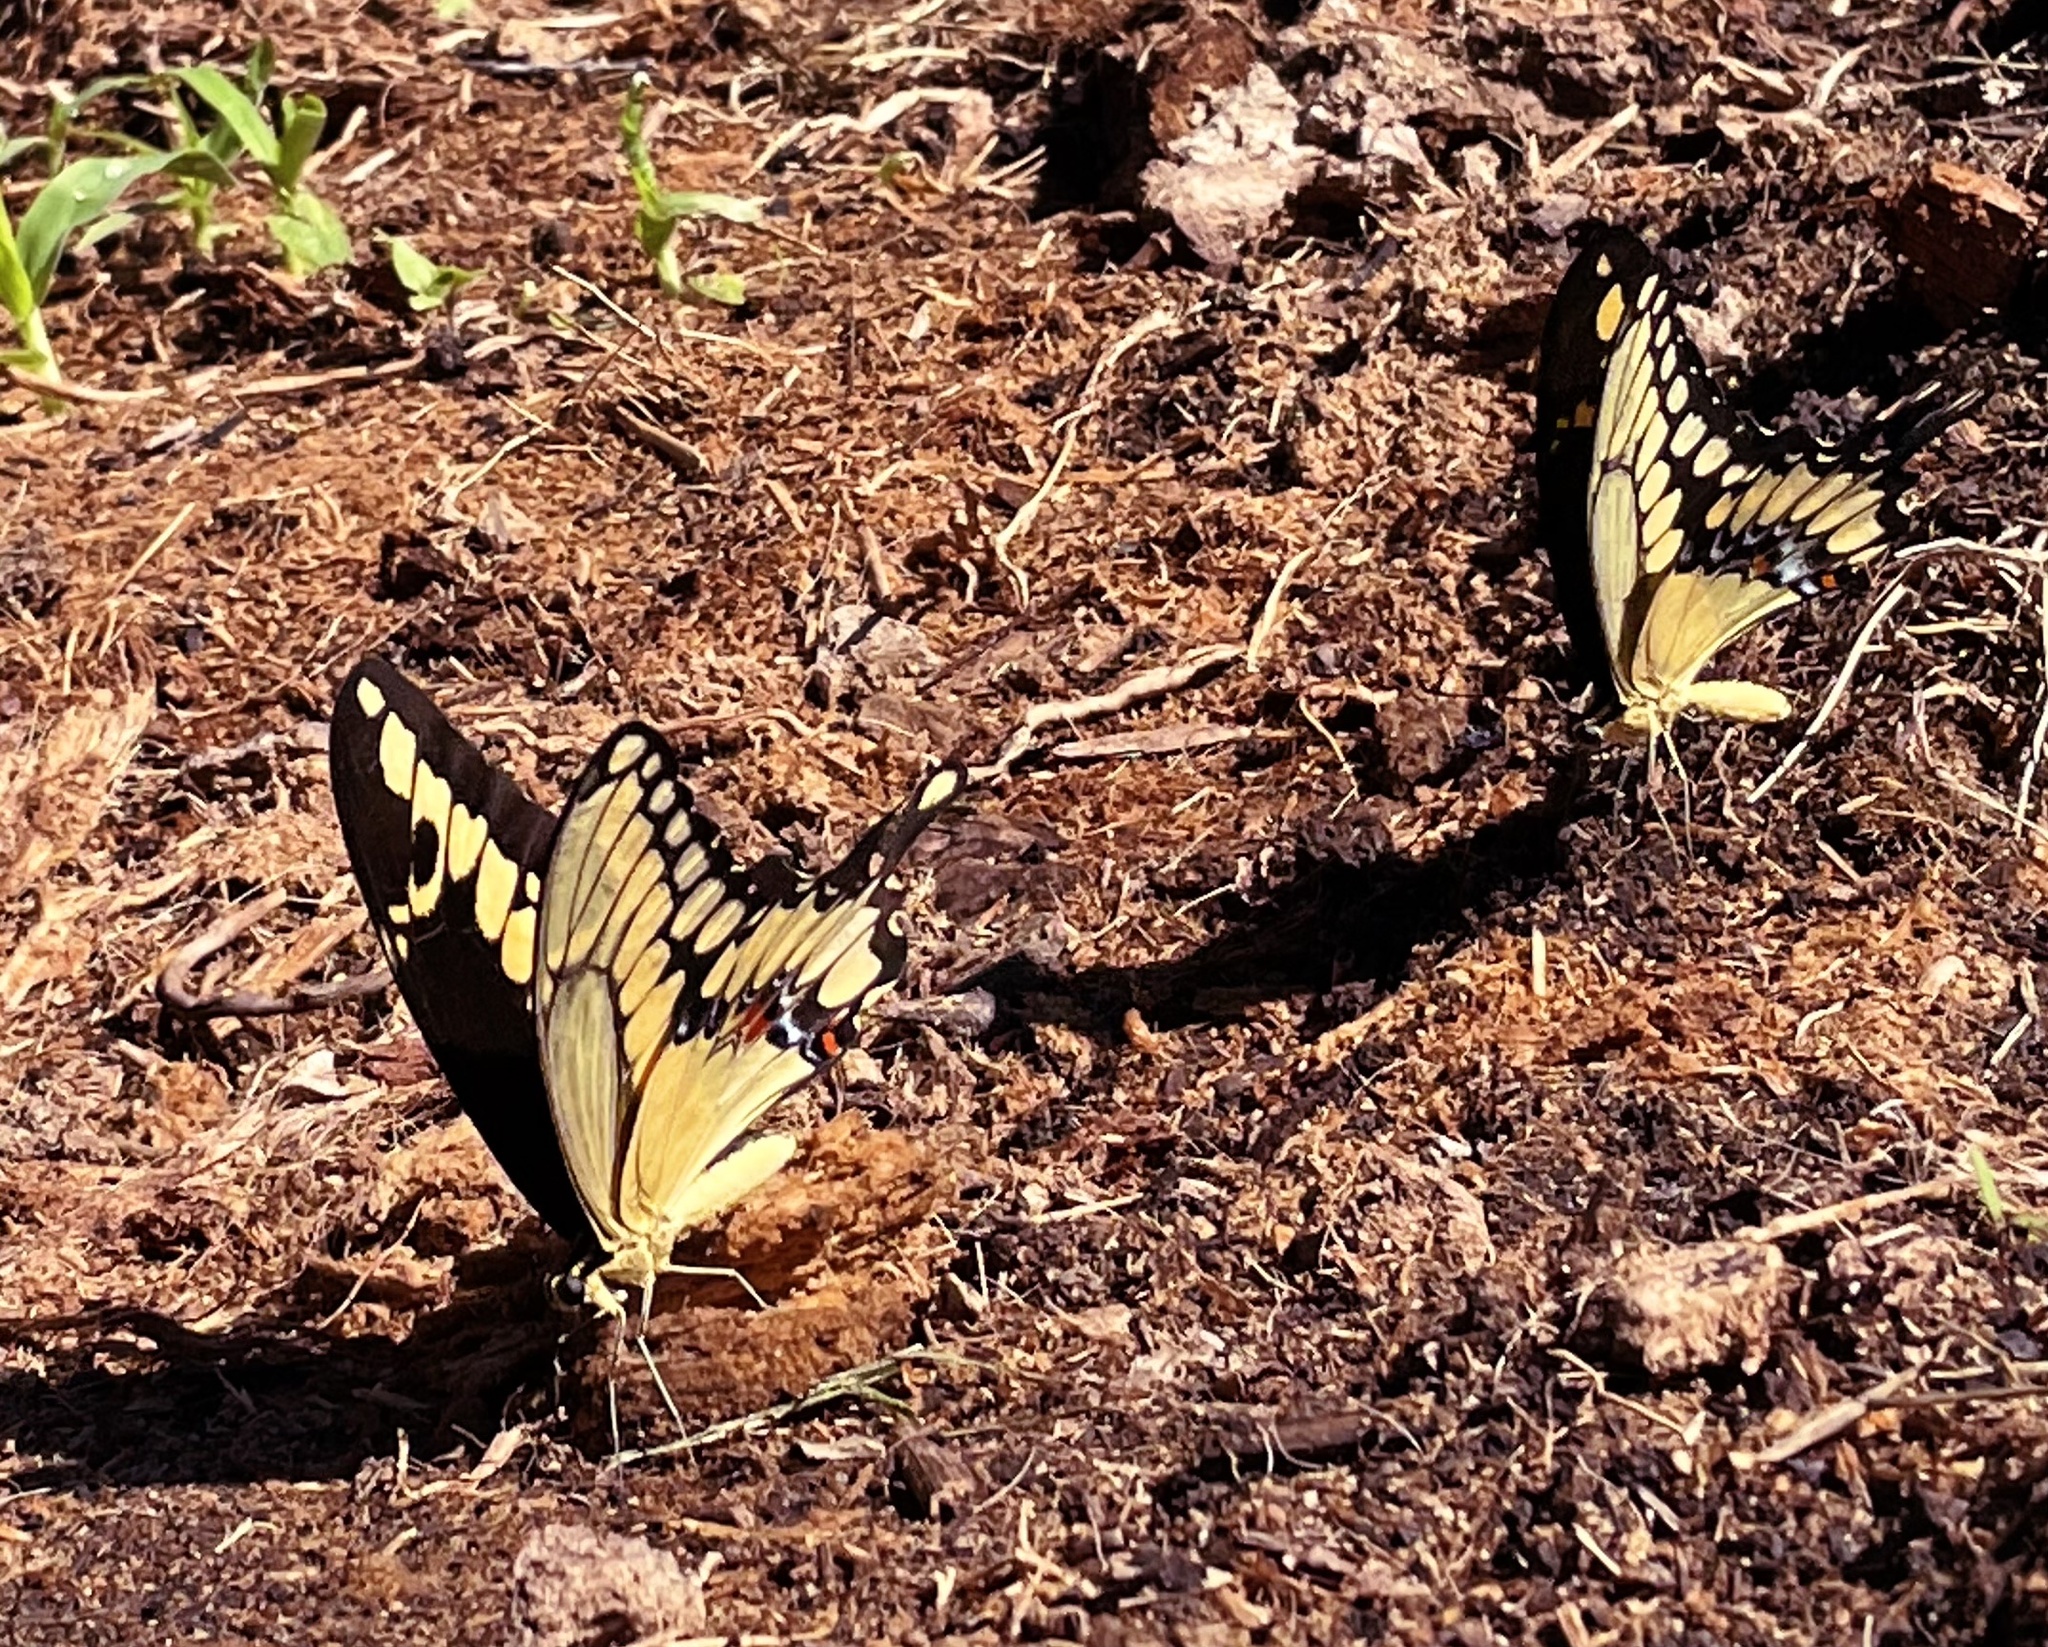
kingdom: Animalia
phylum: Arthropoda
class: Insecta
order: Lepidoptera
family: Papilionidae
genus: Papilio
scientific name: Papilio rumiko
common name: Western giant swallowtail
